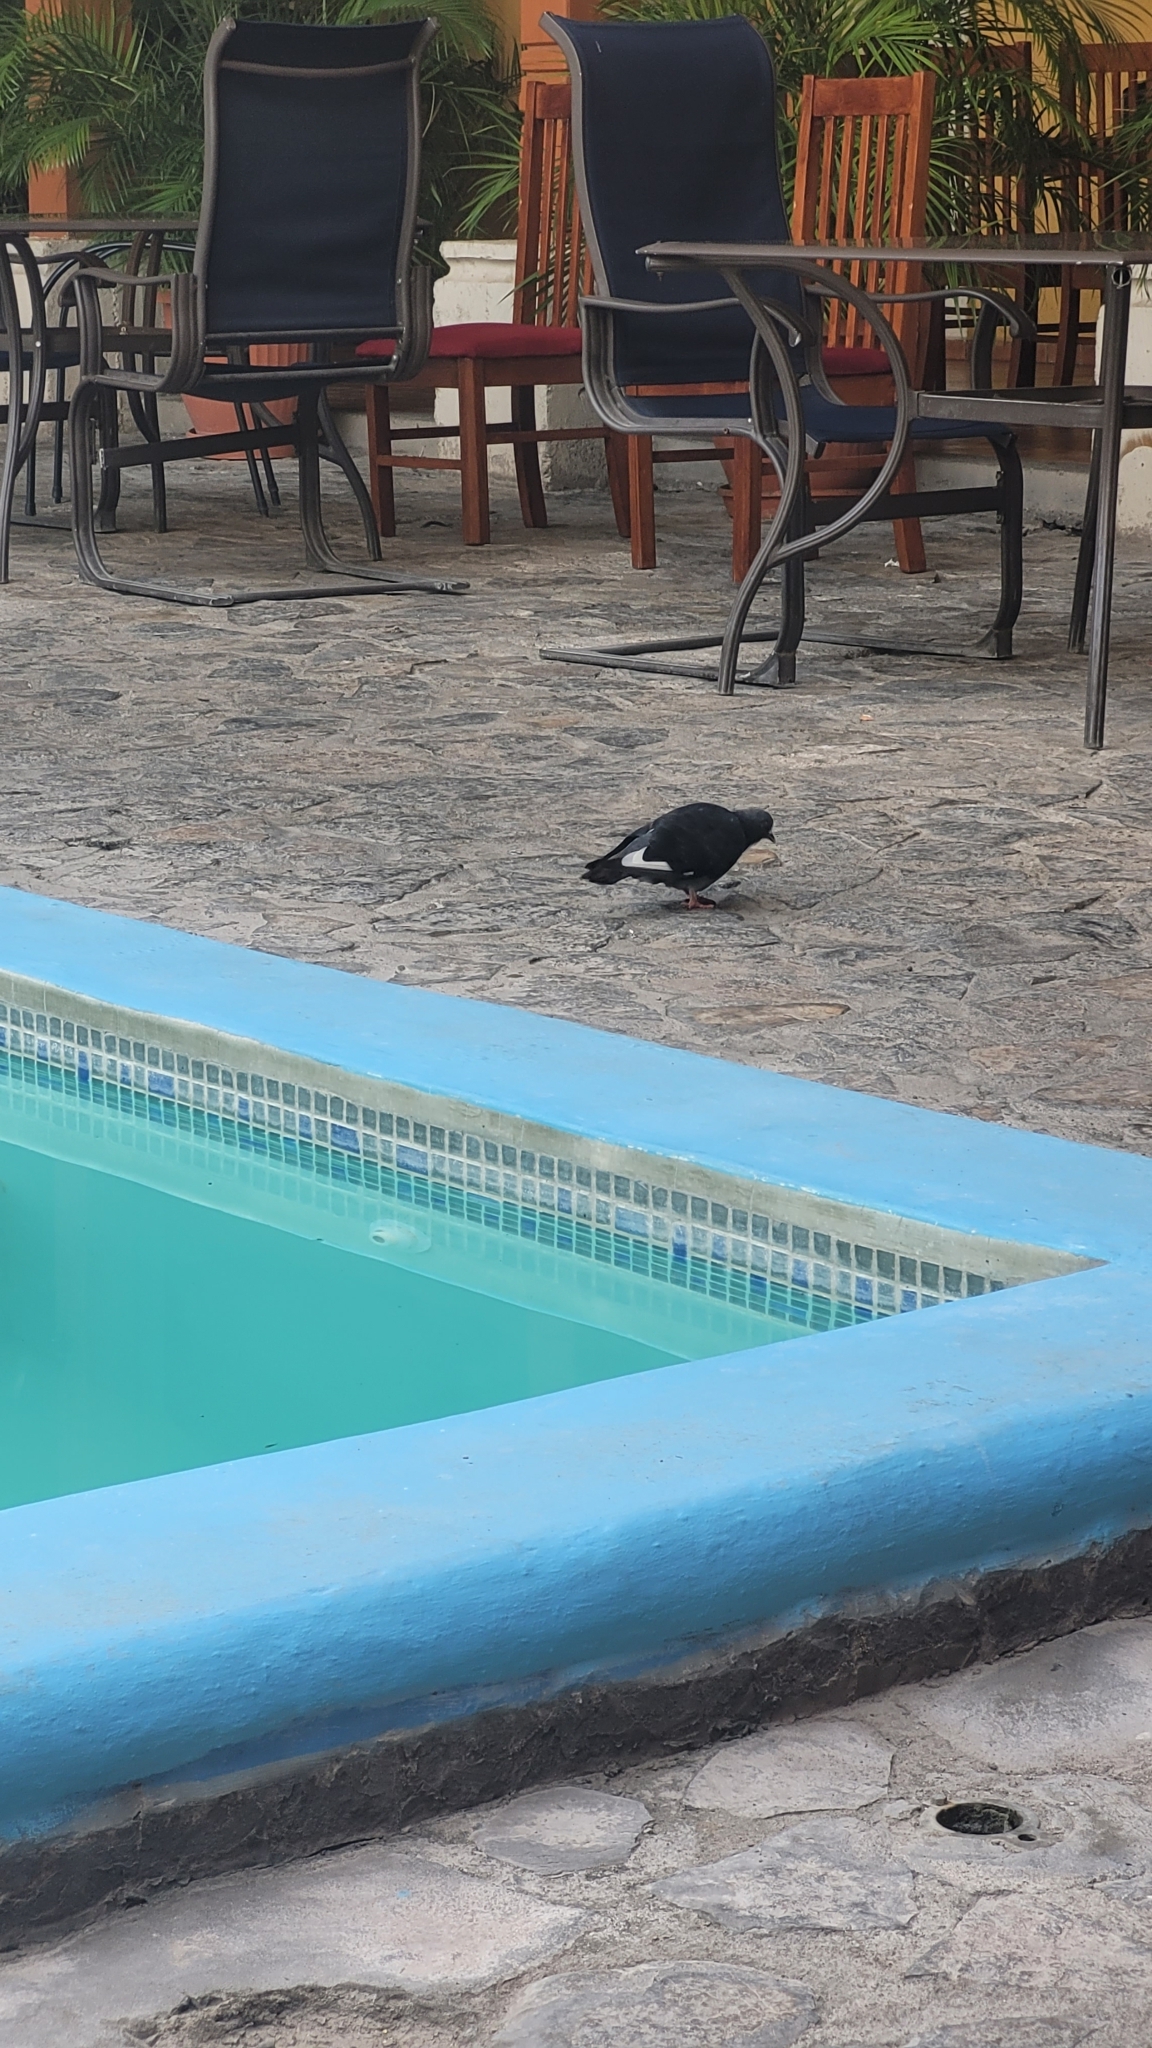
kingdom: Animalia
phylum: Chordata
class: Aves
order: Columbiformes
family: Columbidae
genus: Columba
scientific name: Columba livia
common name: Rock pigeon
